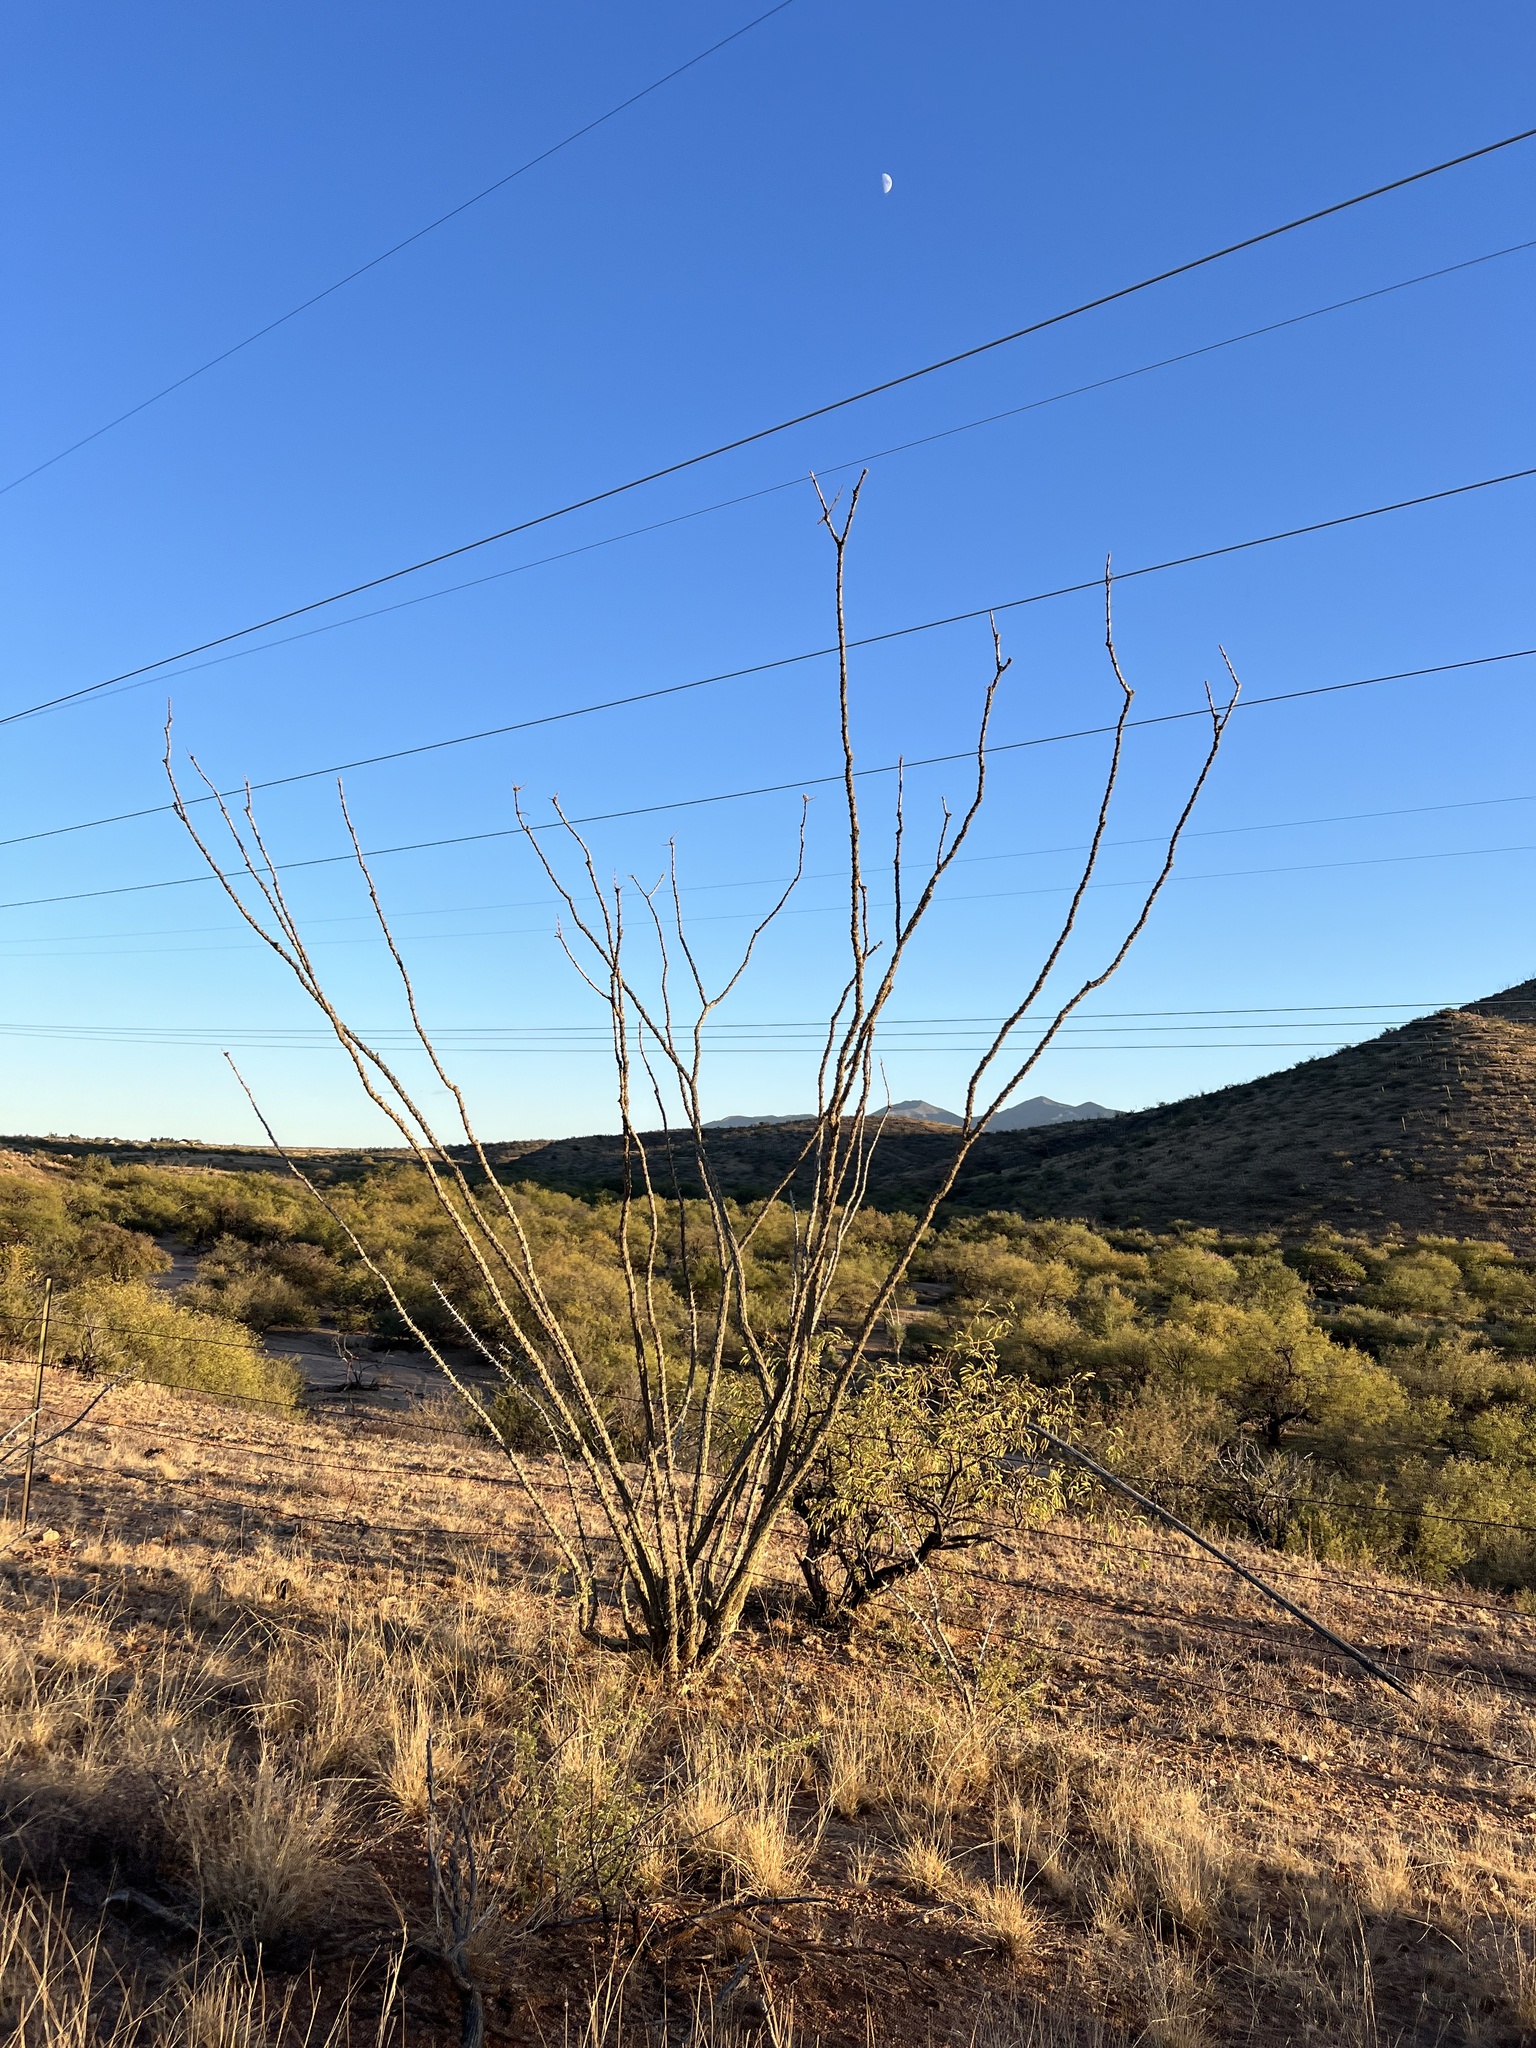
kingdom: Plantae
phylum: Tracheophyta
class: Magnoliopsida
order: Ericales
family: Fouquieriaceae
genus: Fouquieria
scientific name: Fouquieria splendens
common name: Vine-cactus
